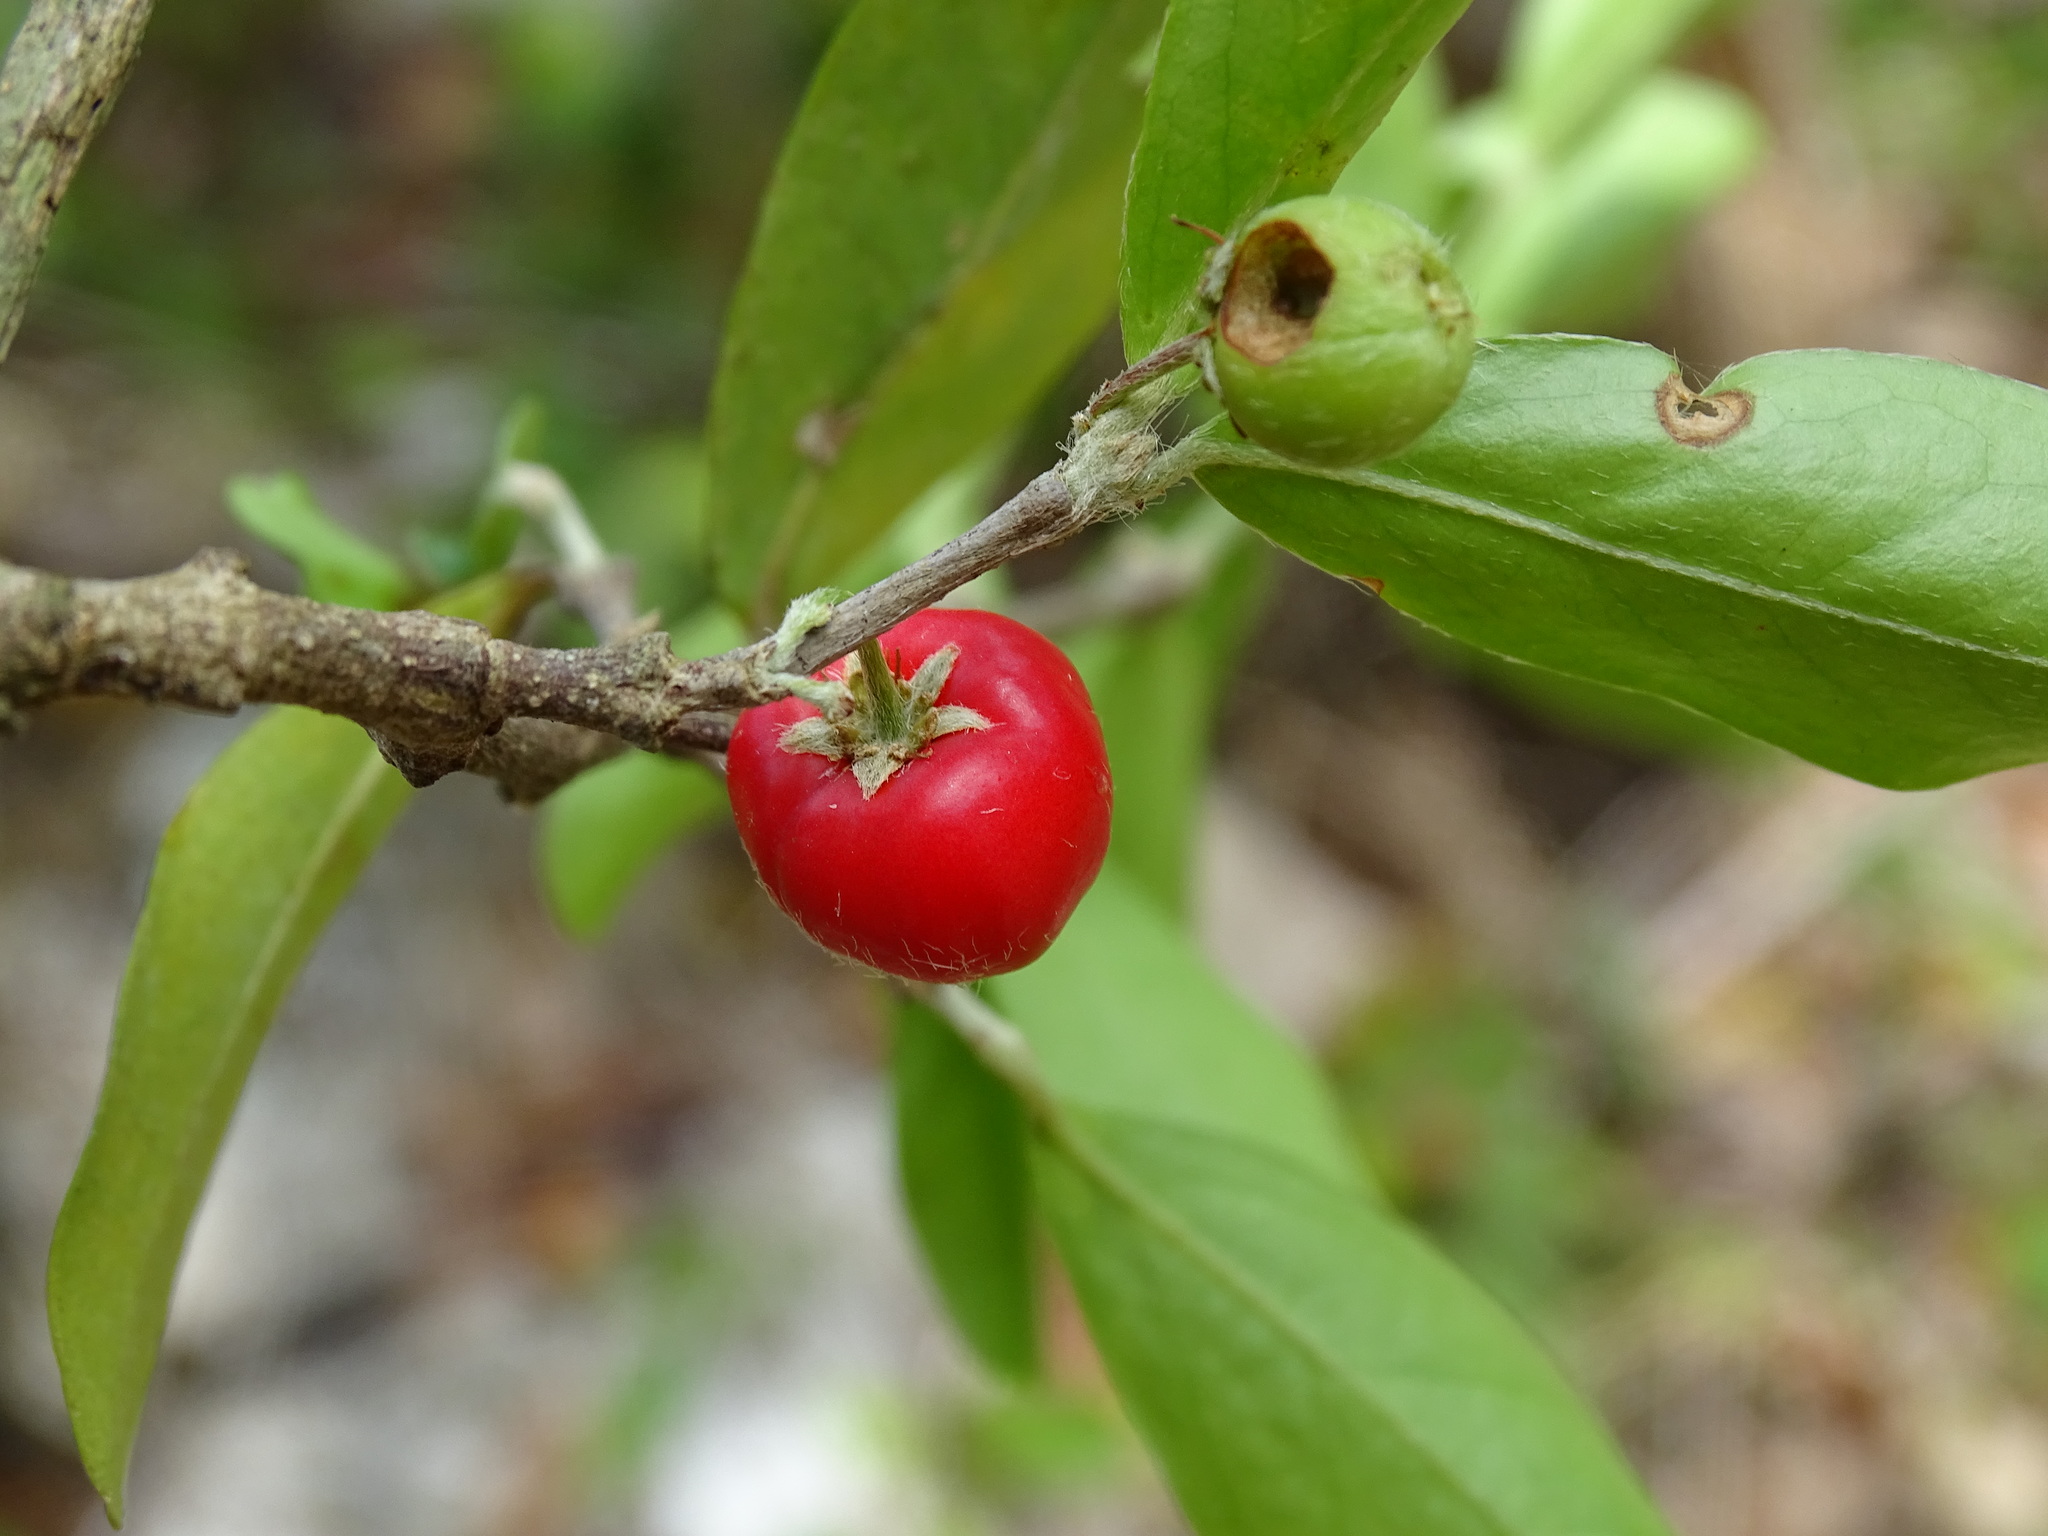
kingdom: Plantae
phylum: Tracheophyta
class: Magnoliopsida
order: Malpighiales
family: Malpighiaceae
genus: Malpighia
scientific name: Malpighia glabra
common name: Barbados cherry
